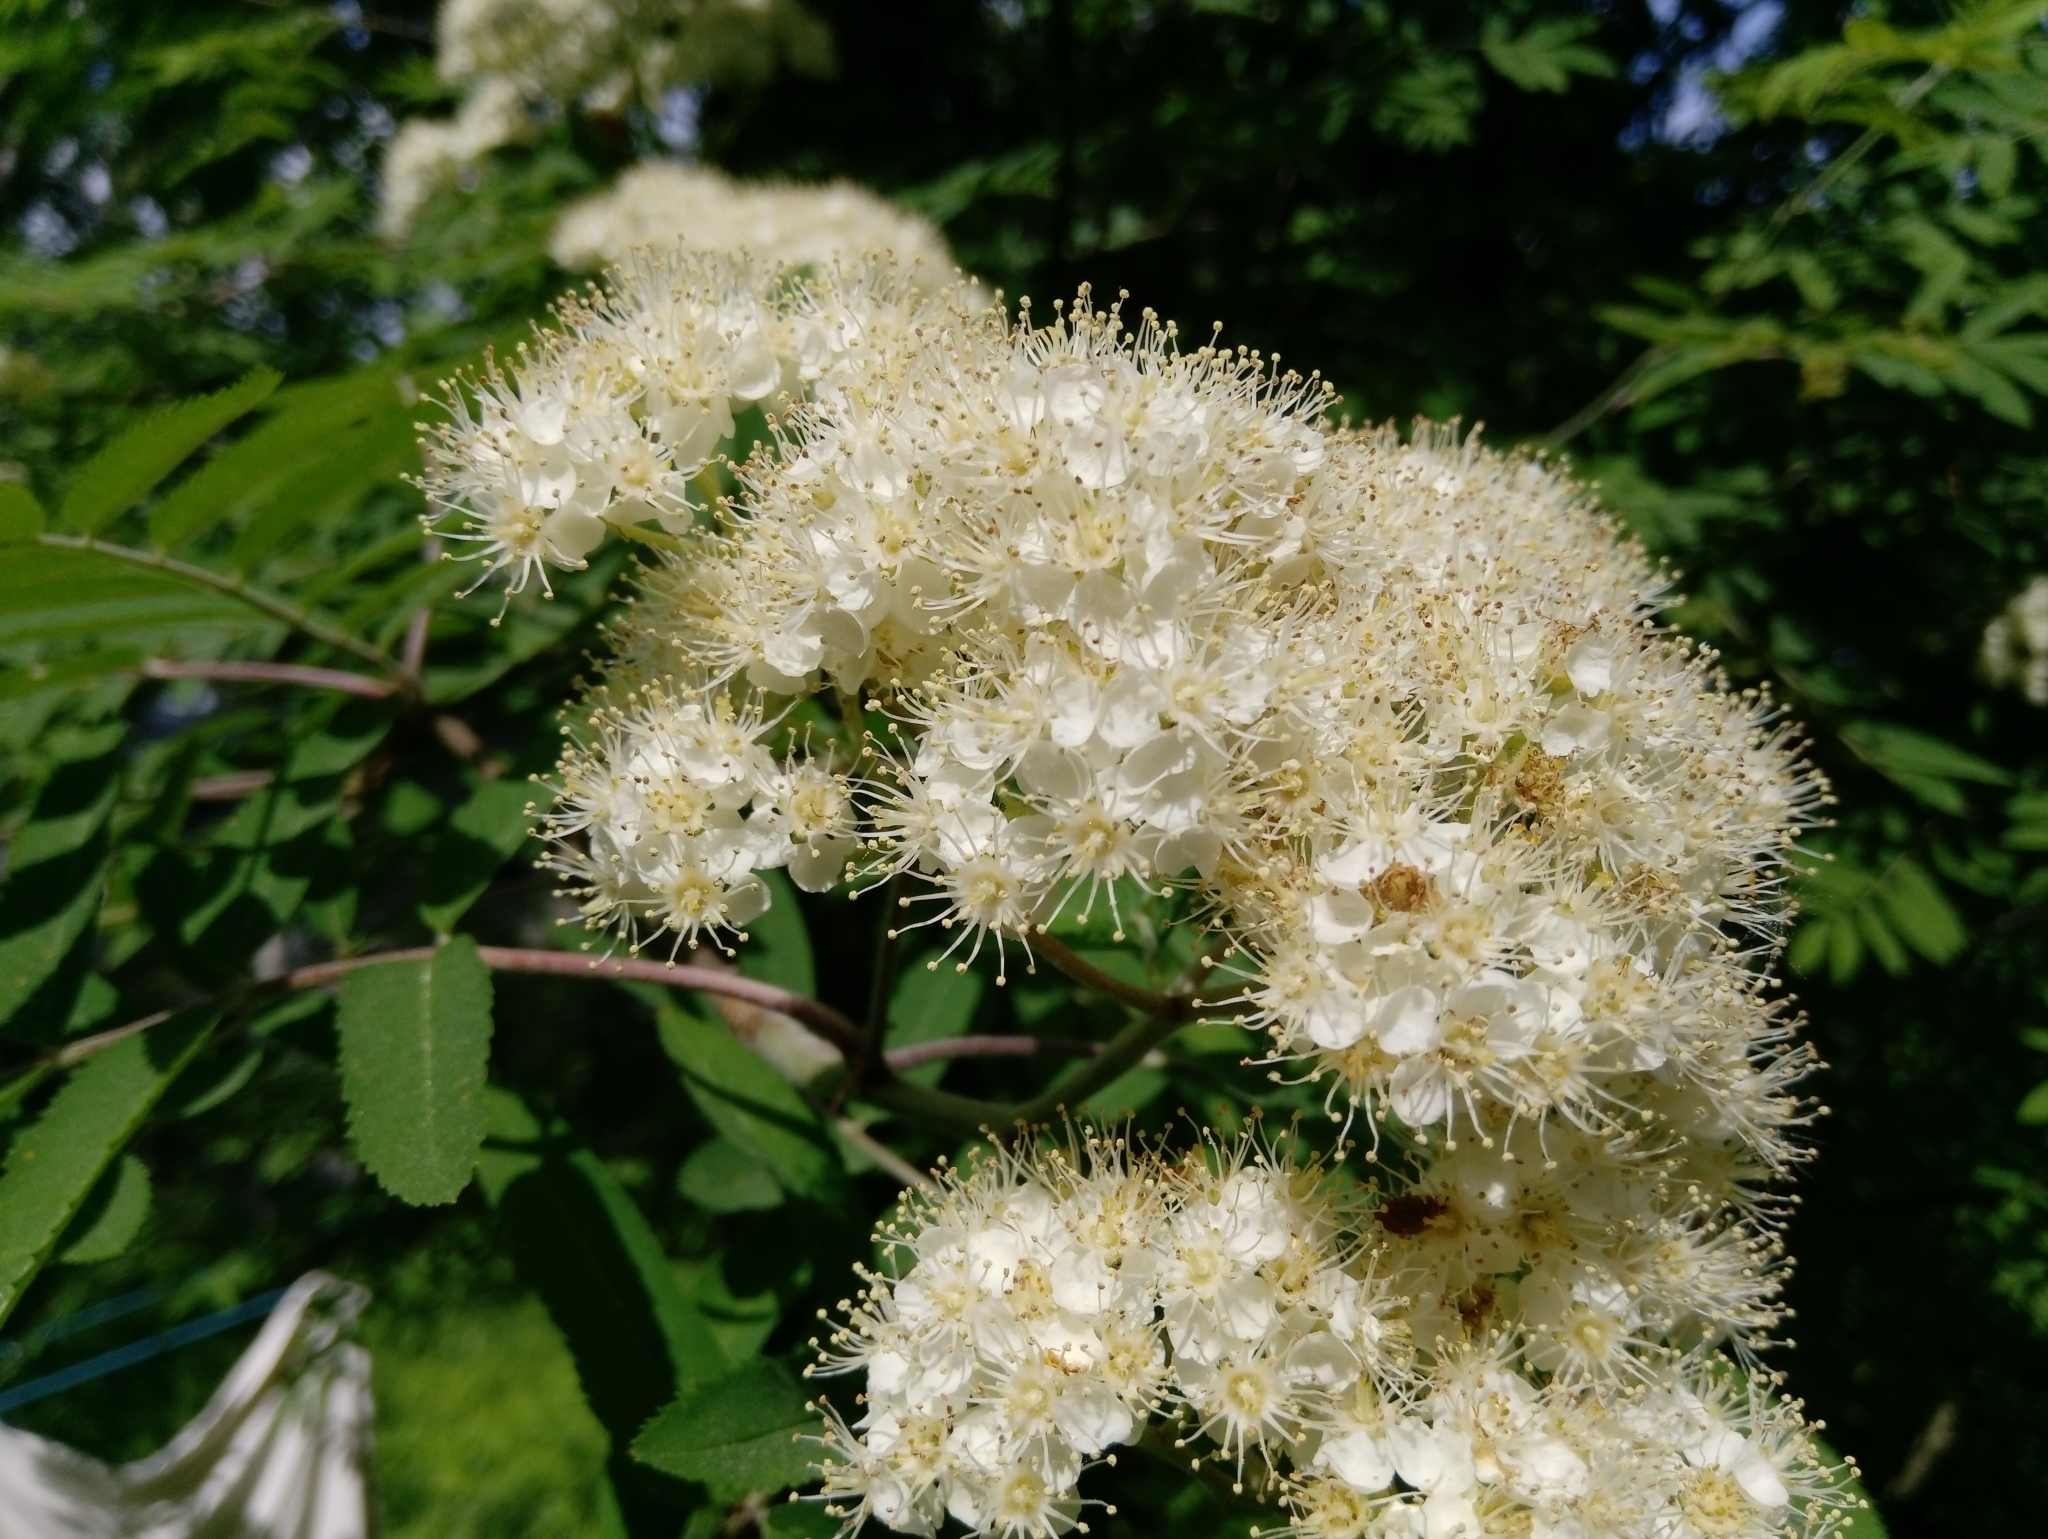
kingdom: Plantae
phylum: Tracheophyta
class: Magnoliopsida
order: Rosales
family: Rosaceae
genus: Sorbus
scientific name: Sorbus aucuparia
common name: Rowan
